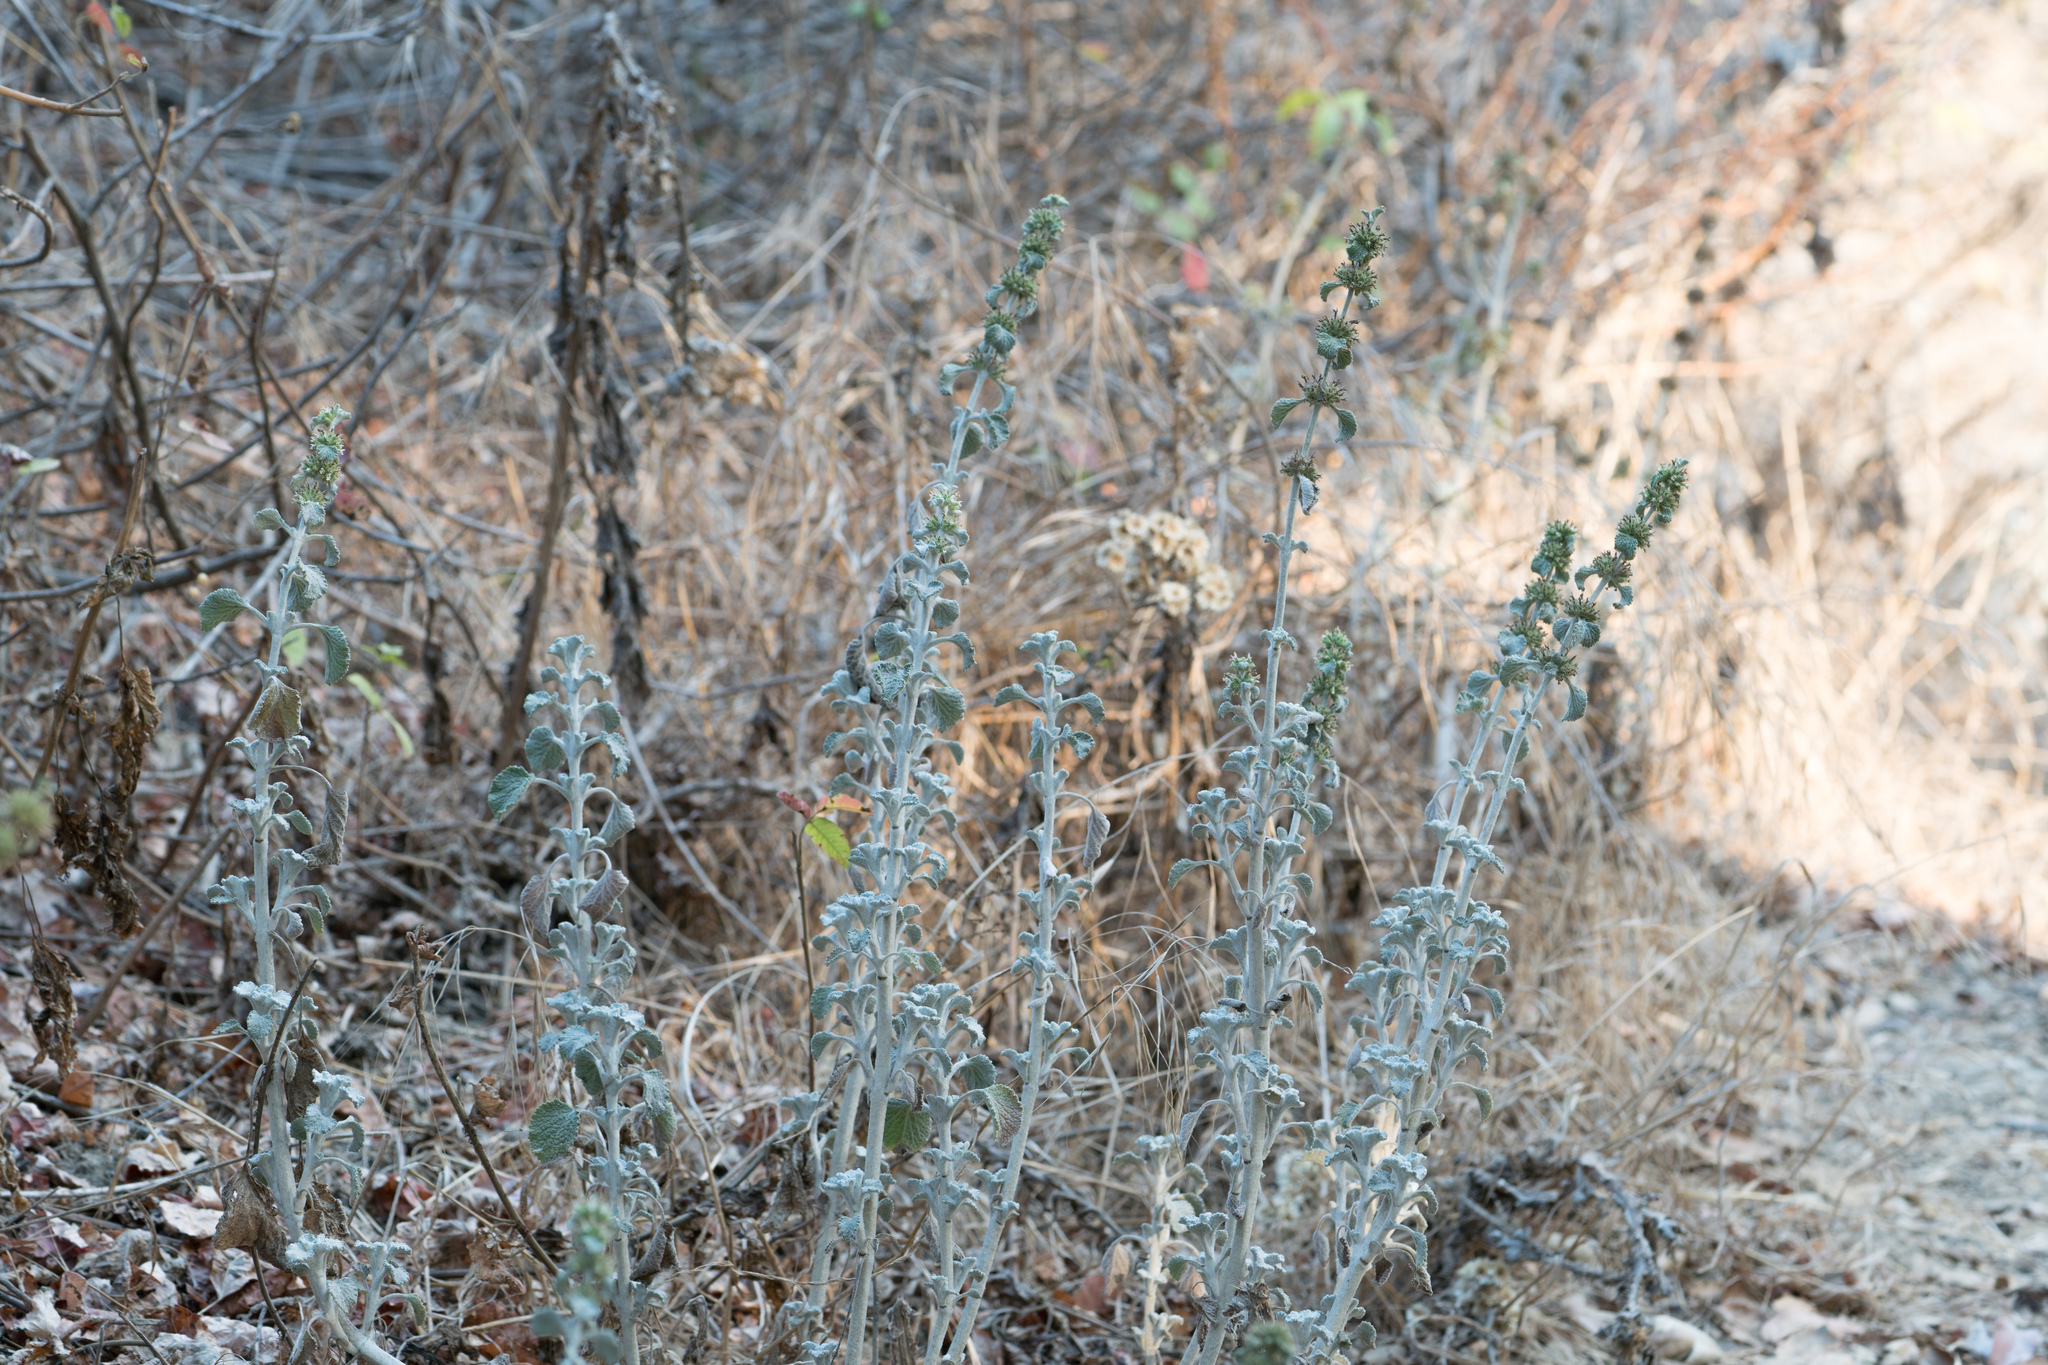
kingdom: Plantae
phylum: Tracheophyta
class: Magnoliopsida
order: Lamiales
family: Lamiaceae
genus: Marrubium
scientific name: Marrubium vulgare
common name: Horehound
